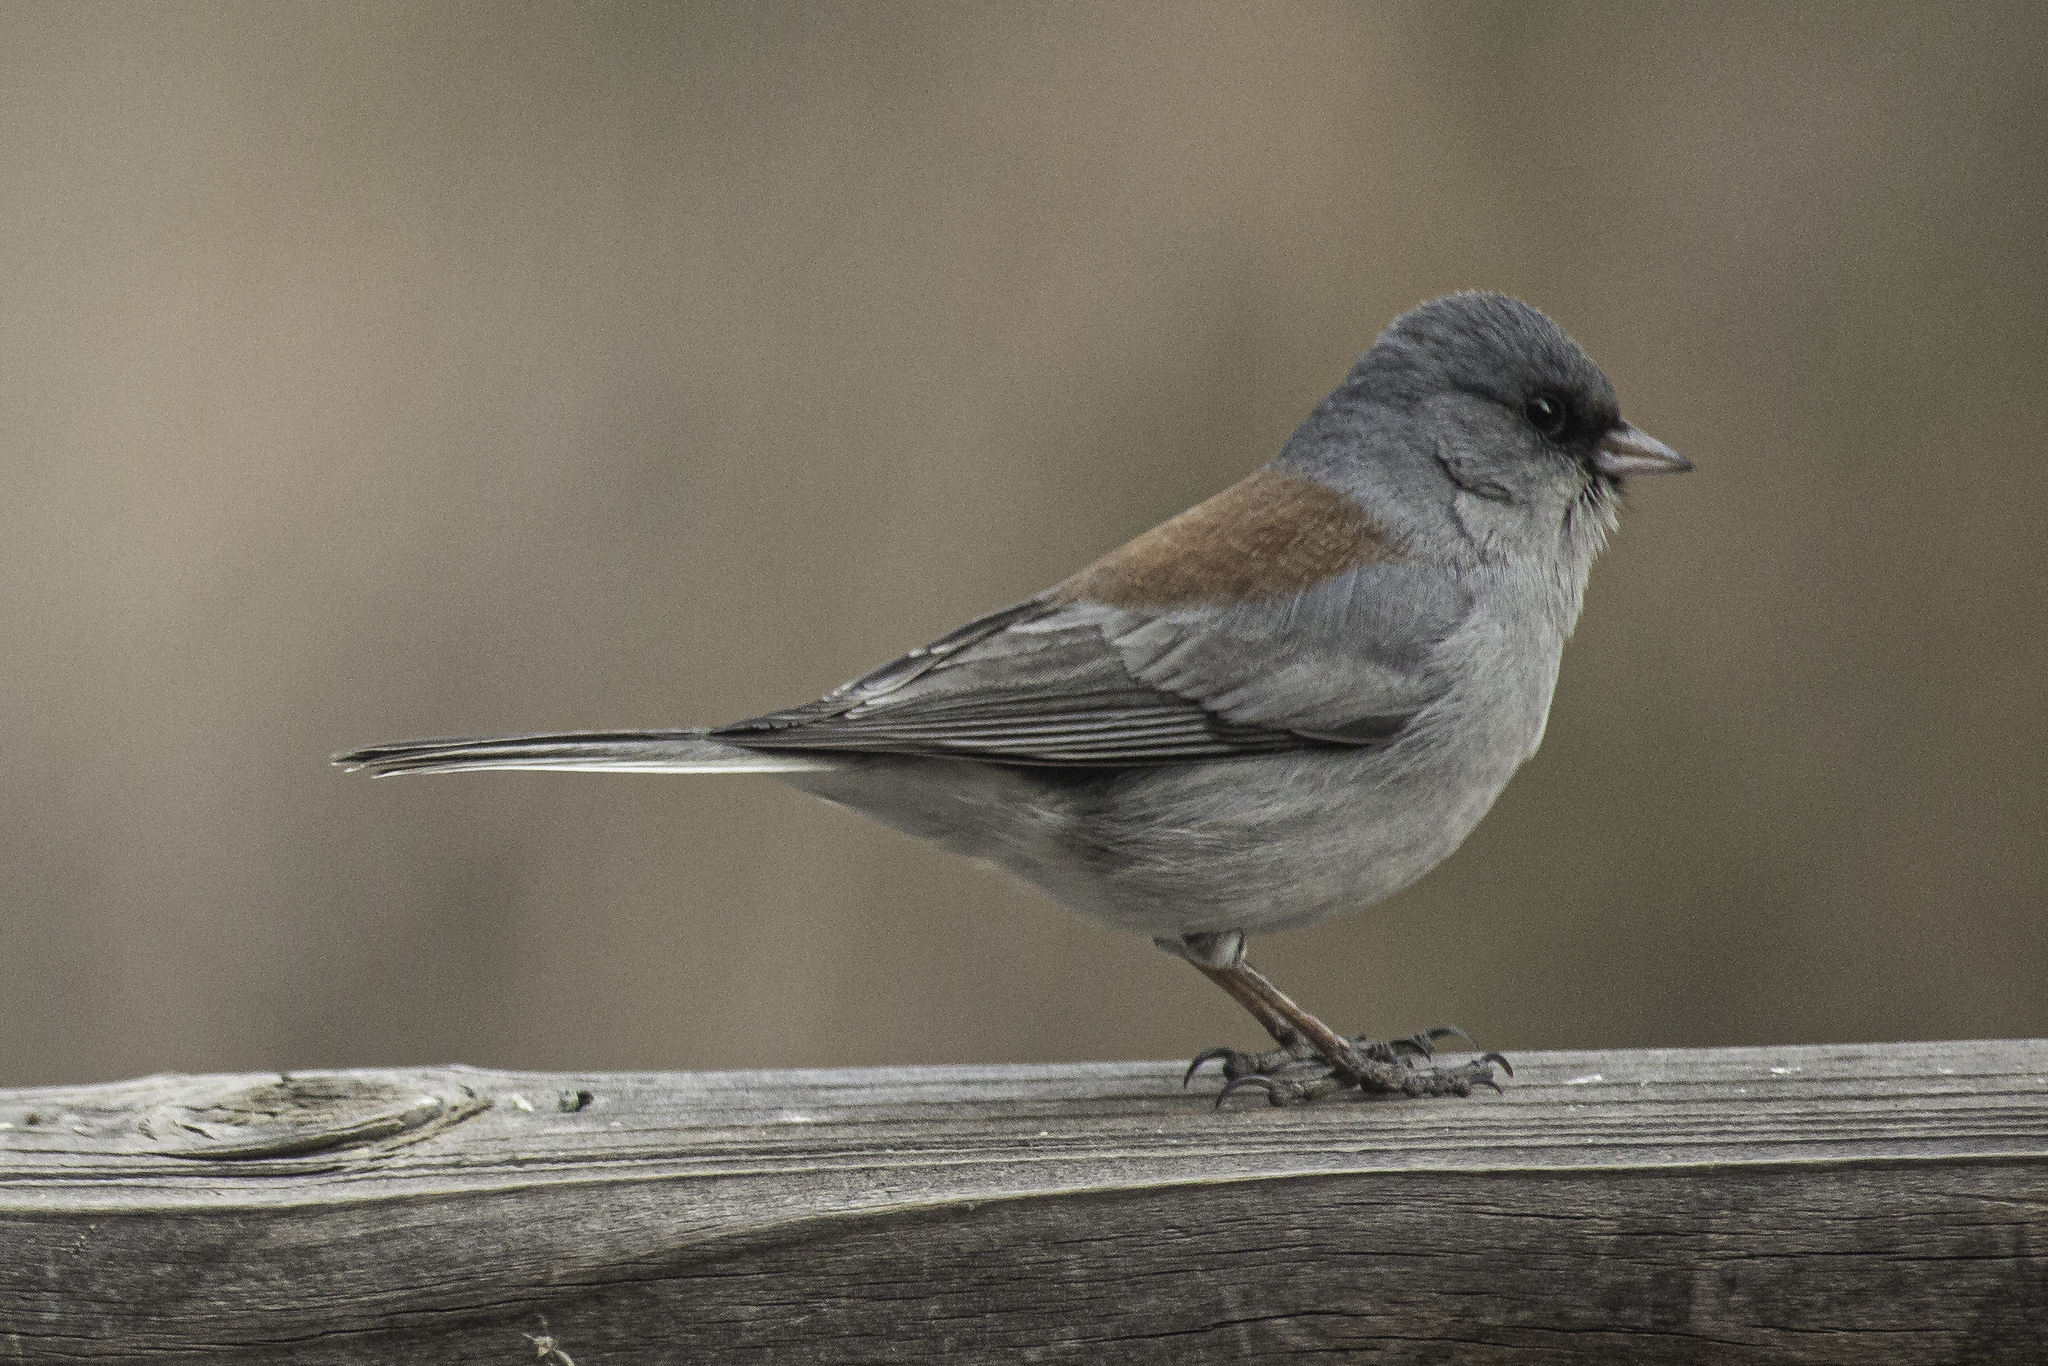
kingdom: Animalia
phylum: Chordata
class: Aves
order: Passeriformes
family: Passerellidae
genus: Junco
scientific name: Junco hyemalis
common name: Dark-eyed junco
